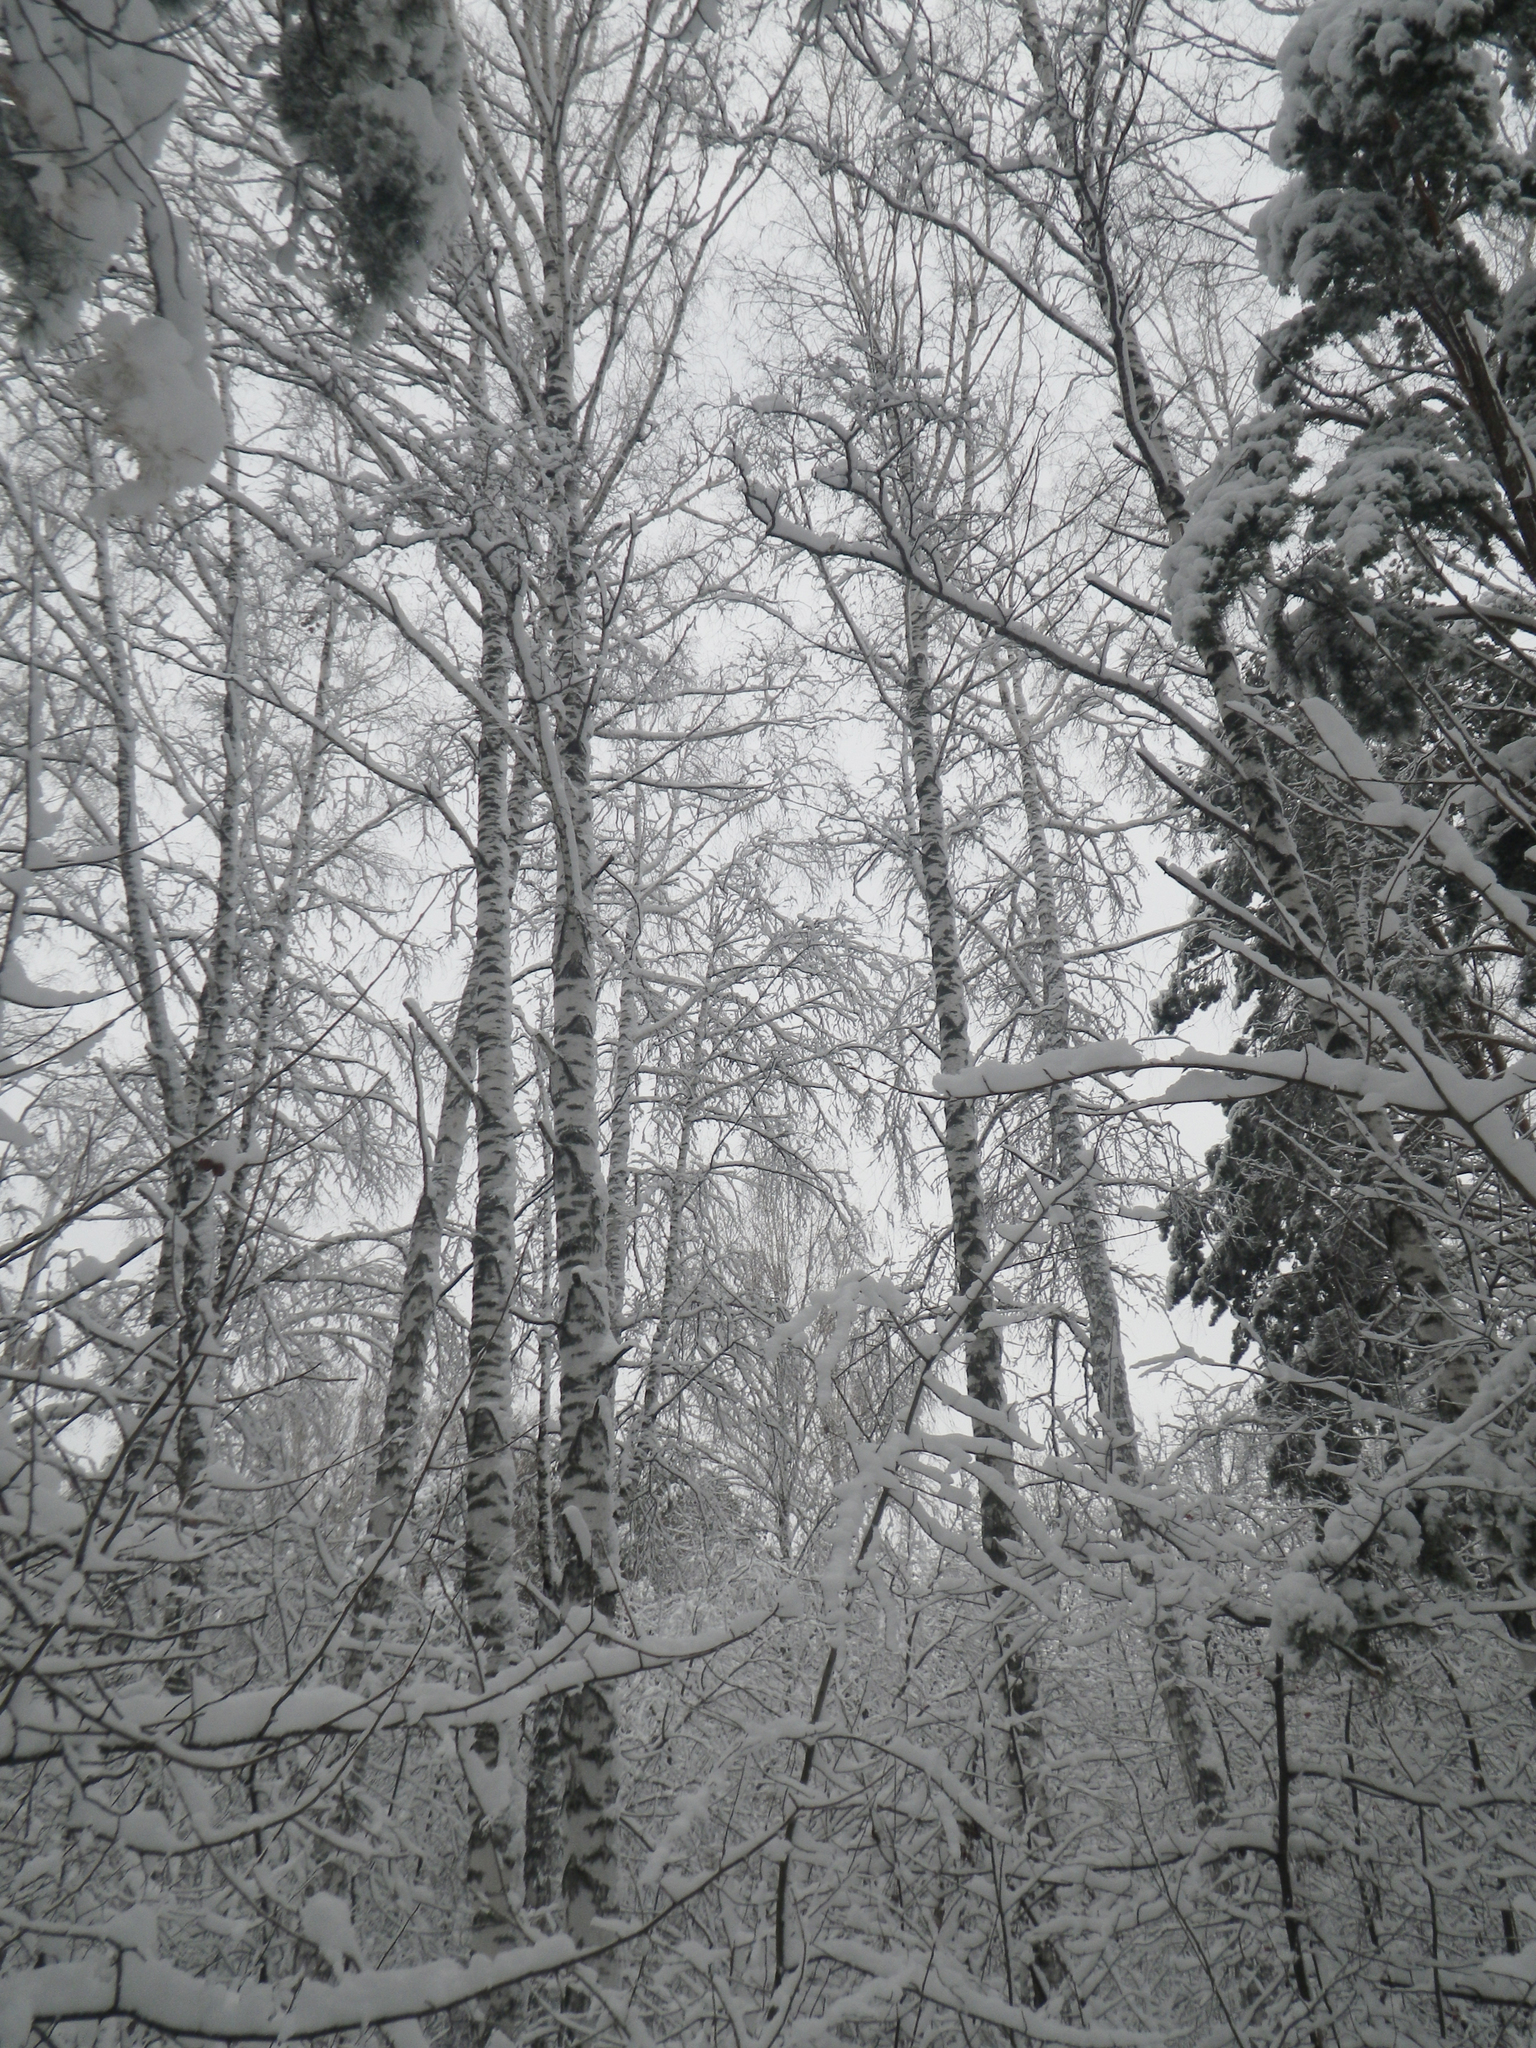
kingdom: Plantae
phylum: Tracheophyta
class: Magnoliopsida
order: Fagales
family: Betulaceae
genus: Betula
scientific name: Betula pendula
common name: Silver birch
